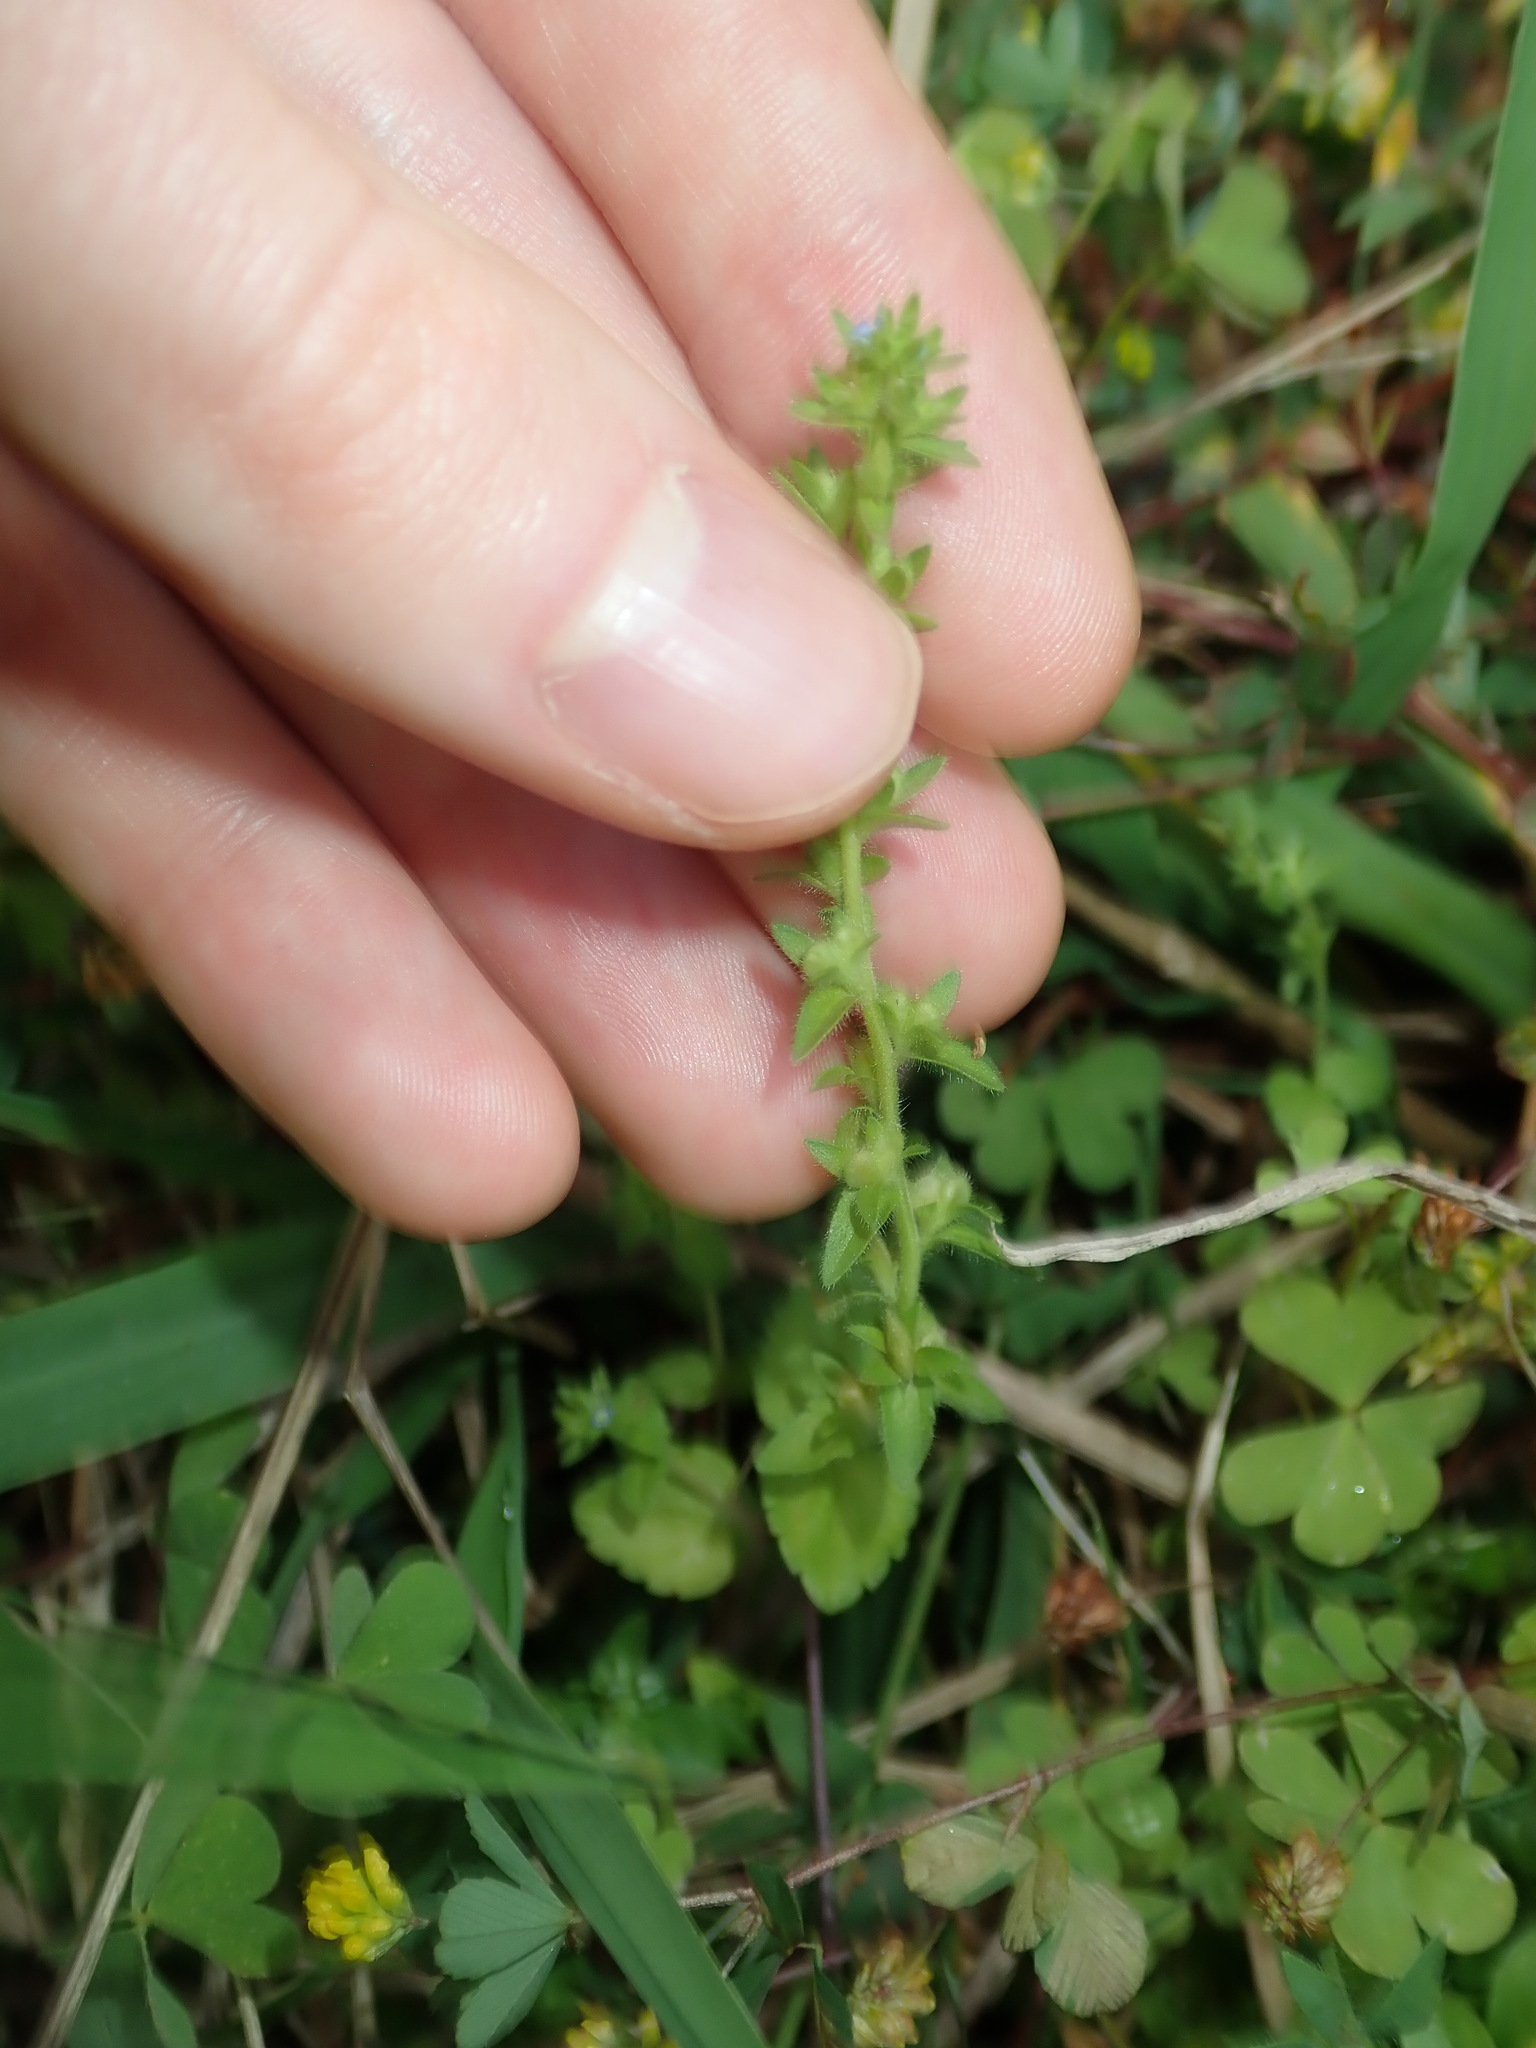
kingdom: Plantae
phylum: Tracheophyta
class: Magnoliopsida
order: Lamiales
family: Plantaginaceae
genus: Veronica
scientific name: Veronica arvensis
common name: Corn speedwell
